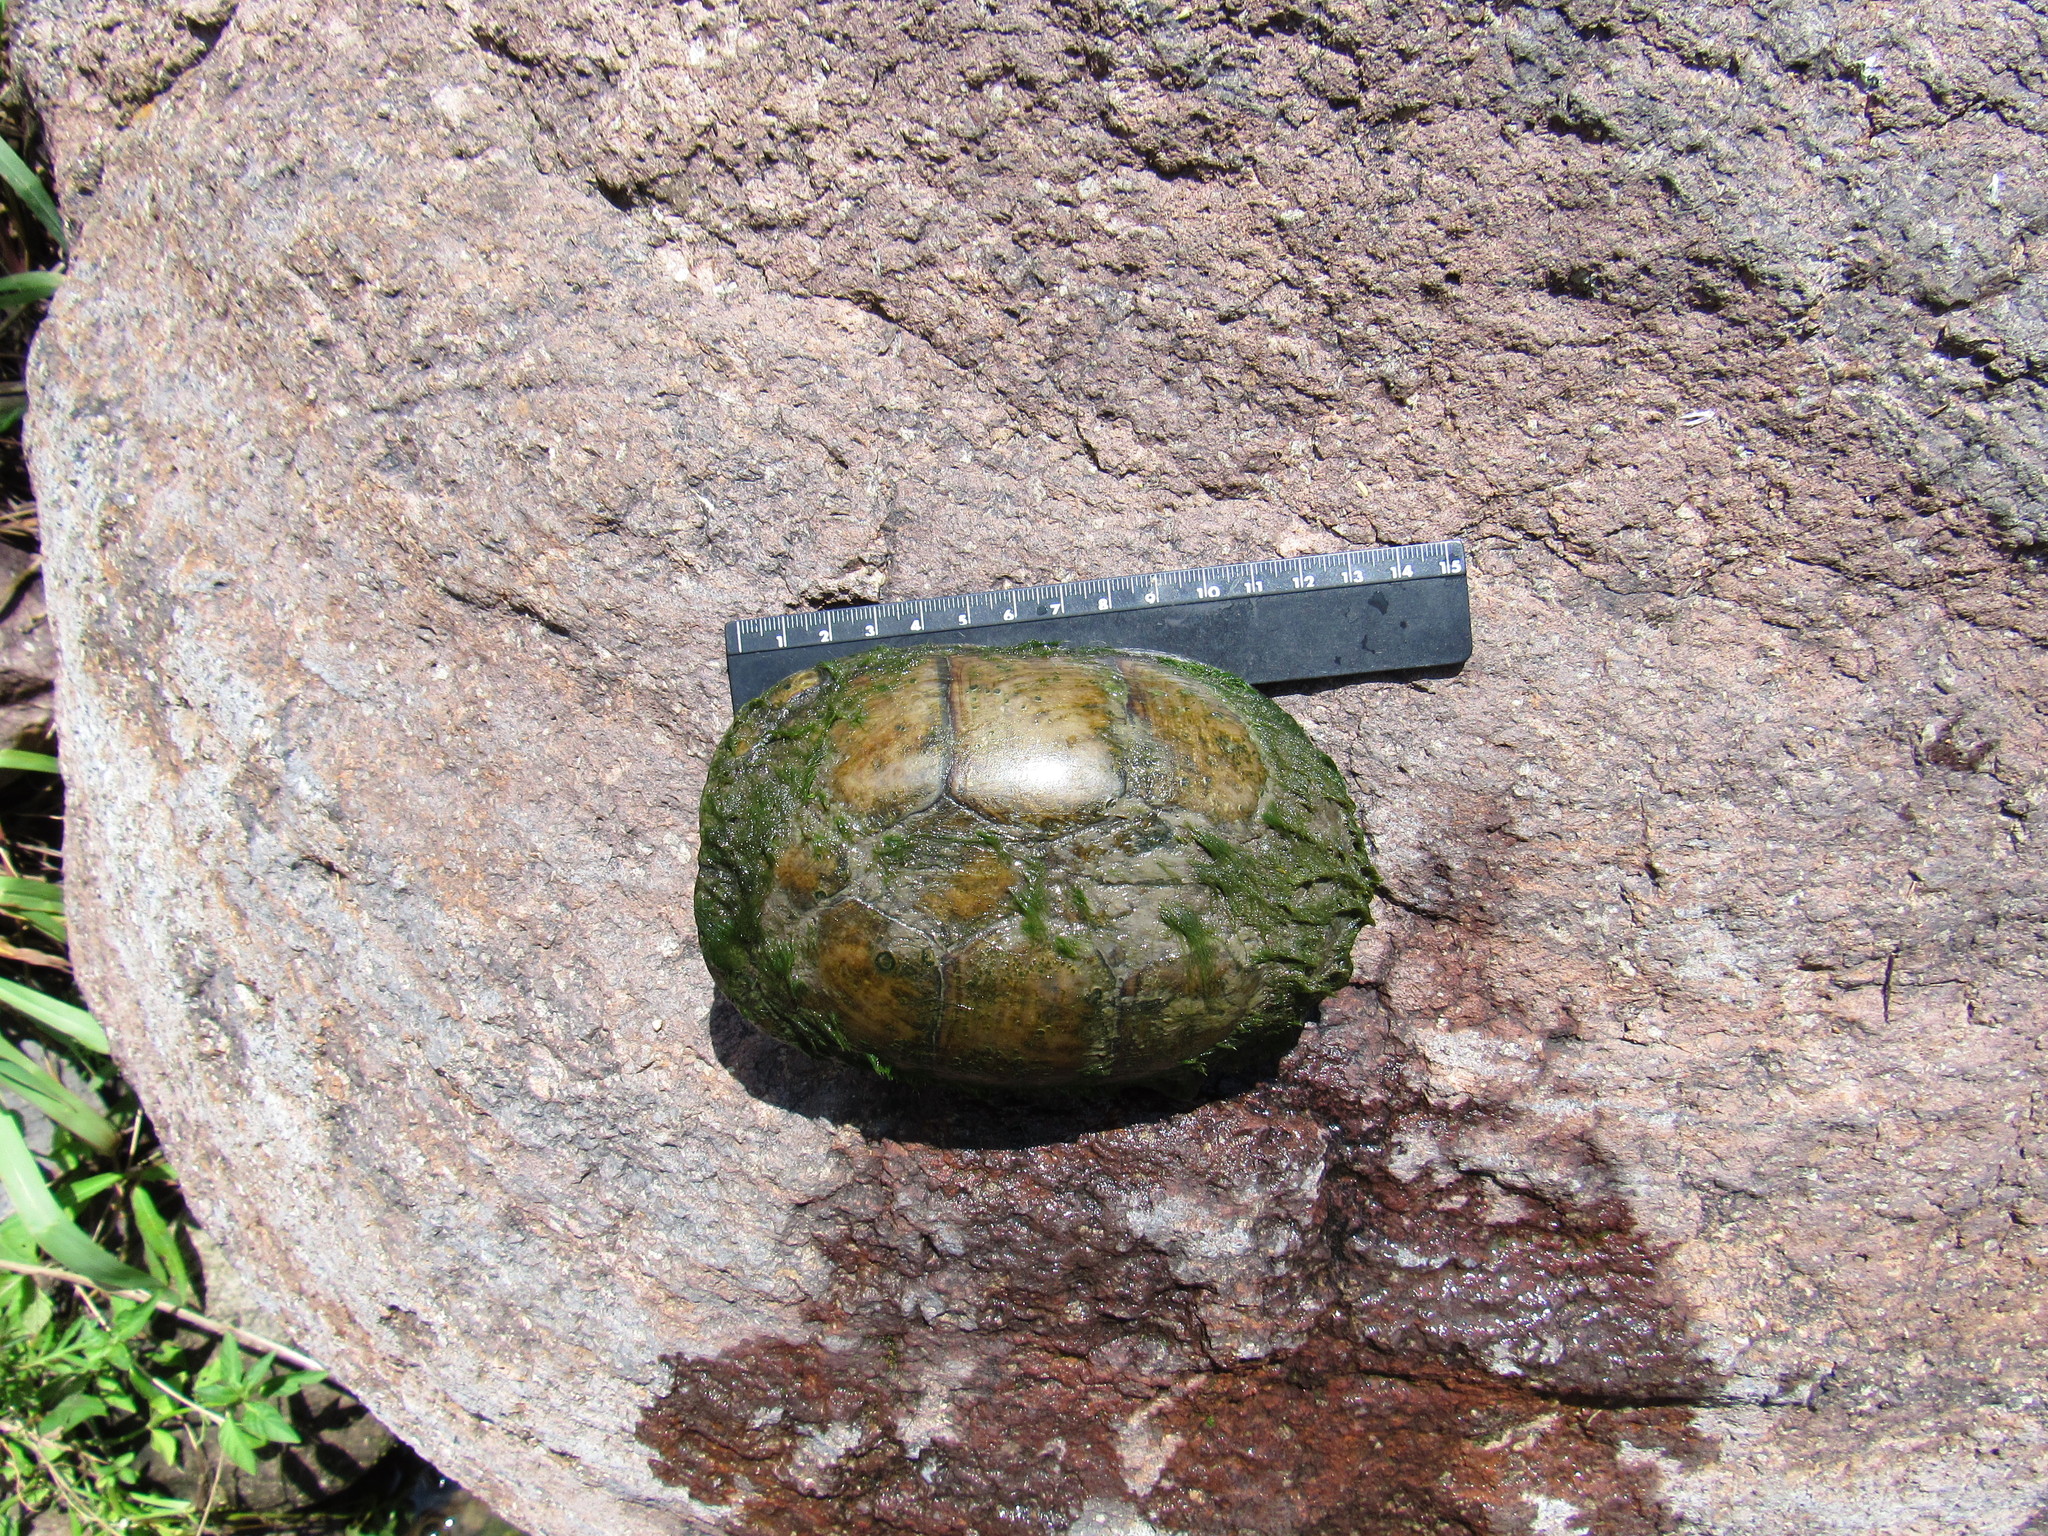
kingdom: Animalia
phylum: Chordata
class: Testudines
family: Kinosternidae
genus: Kinosternon
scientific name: Kinosternon integrum
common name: Mexican mud turtle
